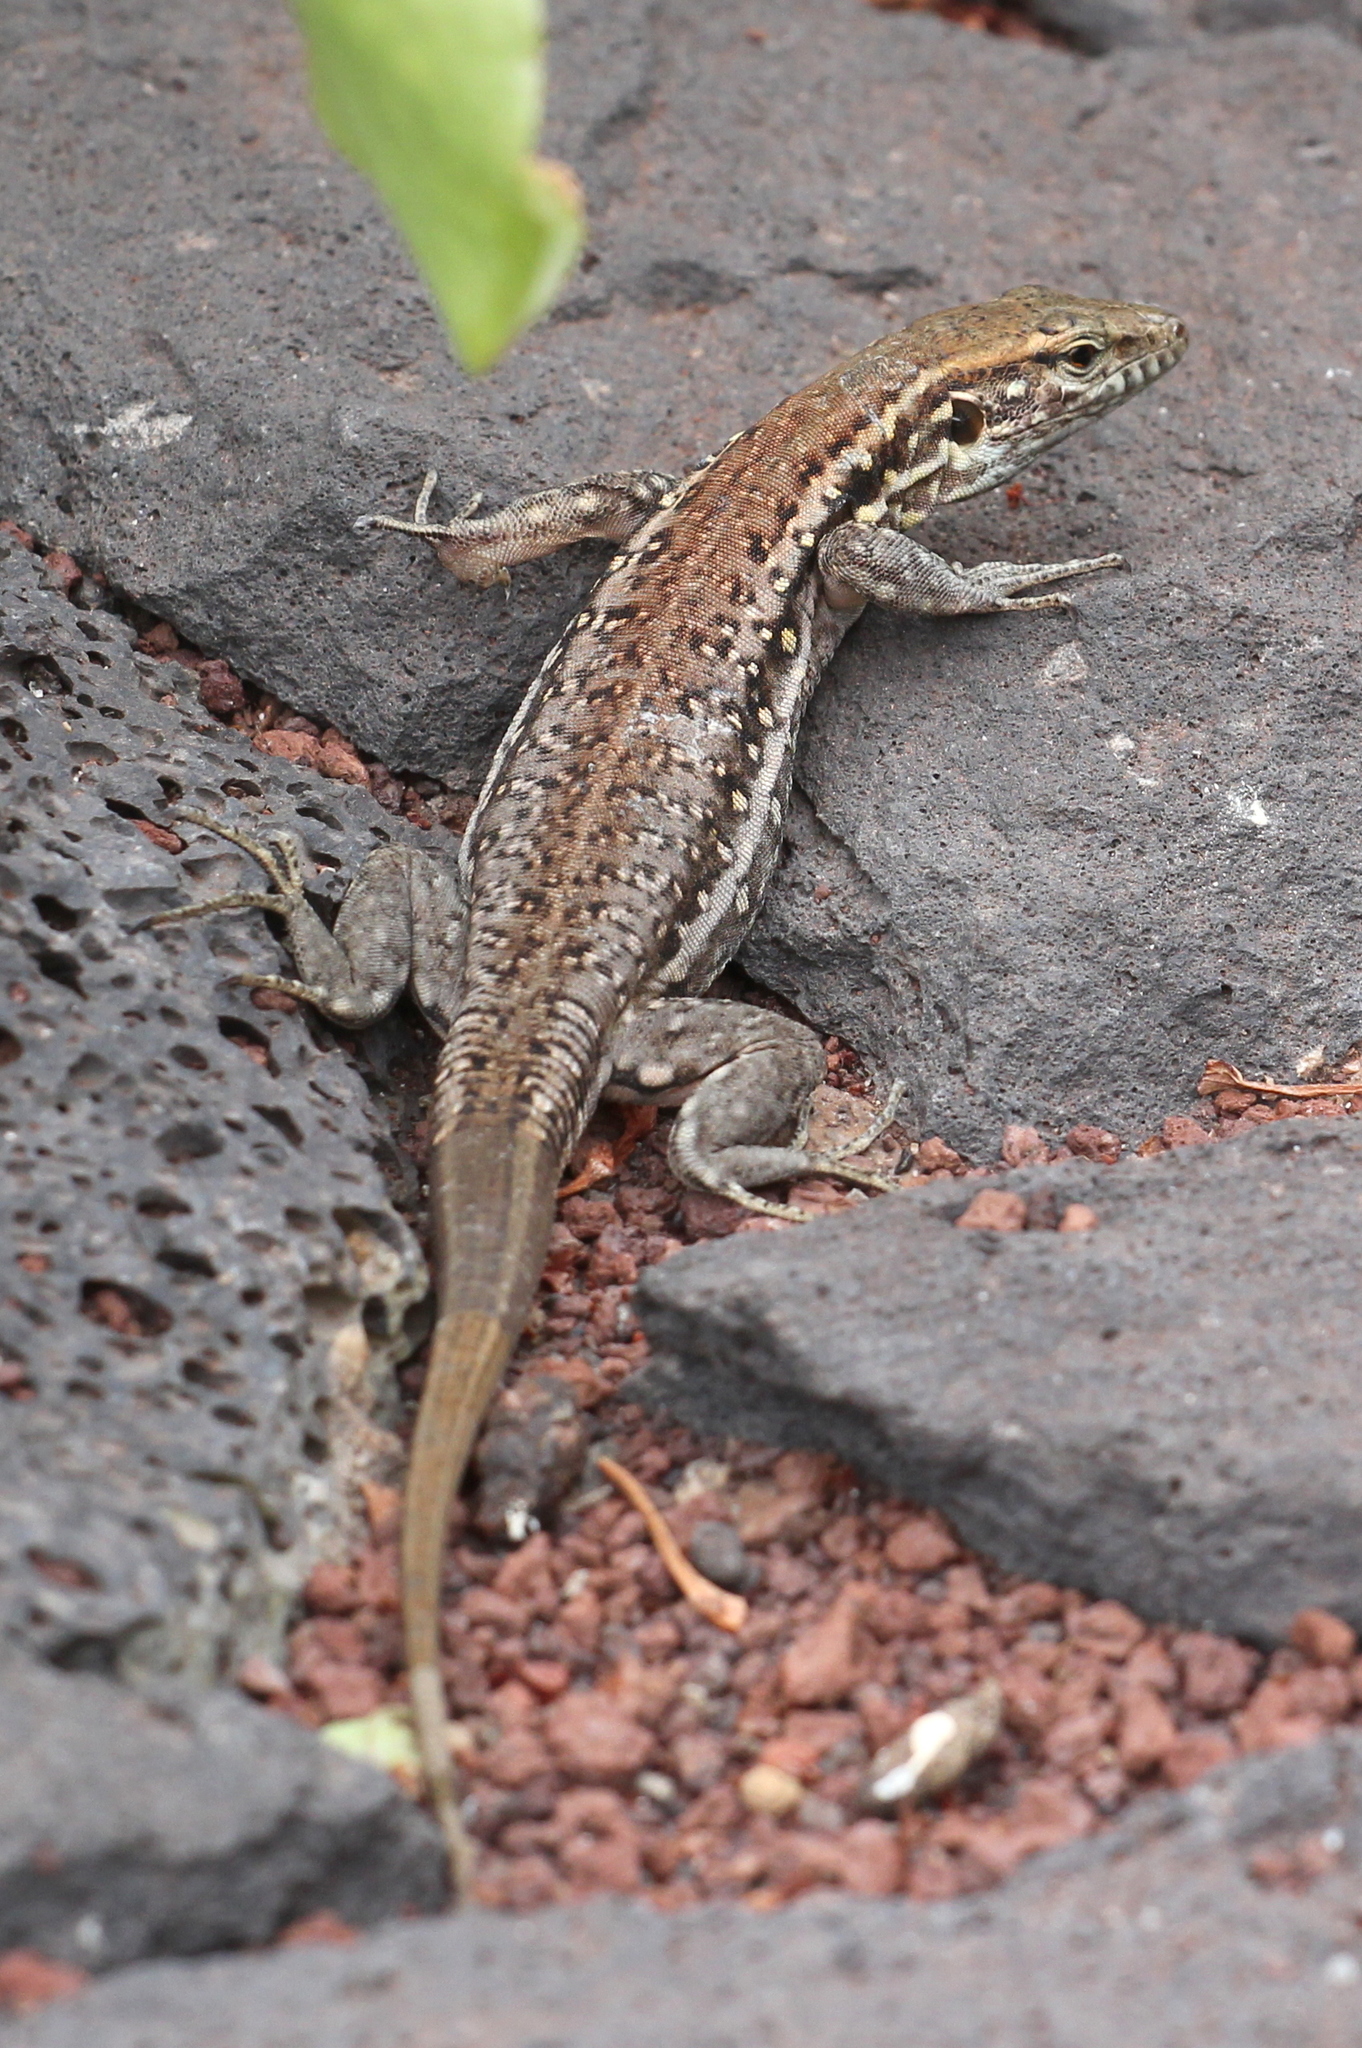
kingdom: Animalia
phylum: Chordata
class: Squamata
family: Lacertidae
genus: Gallotia
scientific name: Gallotia galloti
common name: Gallot's lizard
